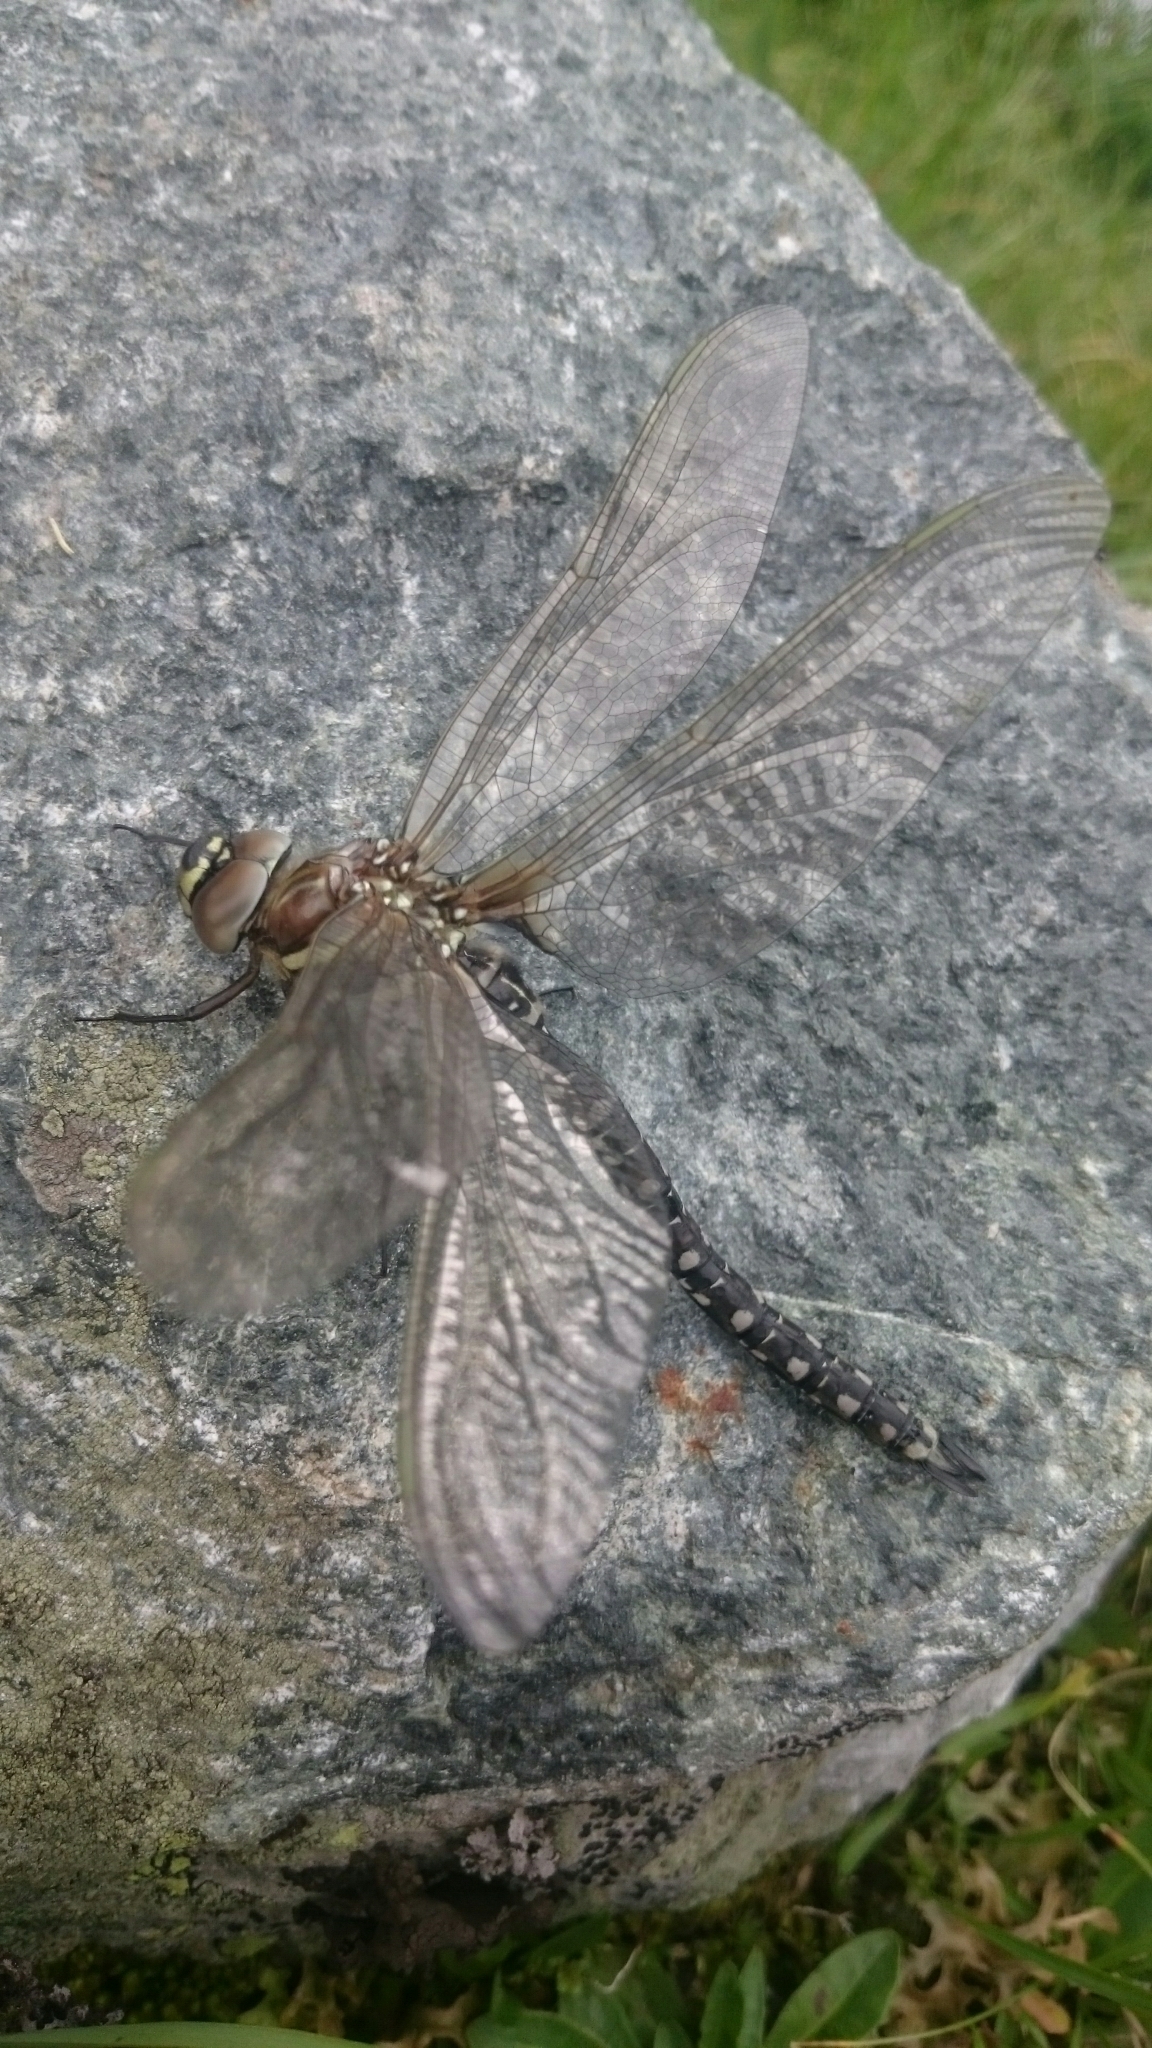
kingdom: Animalia
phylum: Arthropoda
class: Insecta
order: Odonata
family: Aeshnidae
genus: Aeshna
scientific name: Aeshna juncea
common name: Moorland hawker
